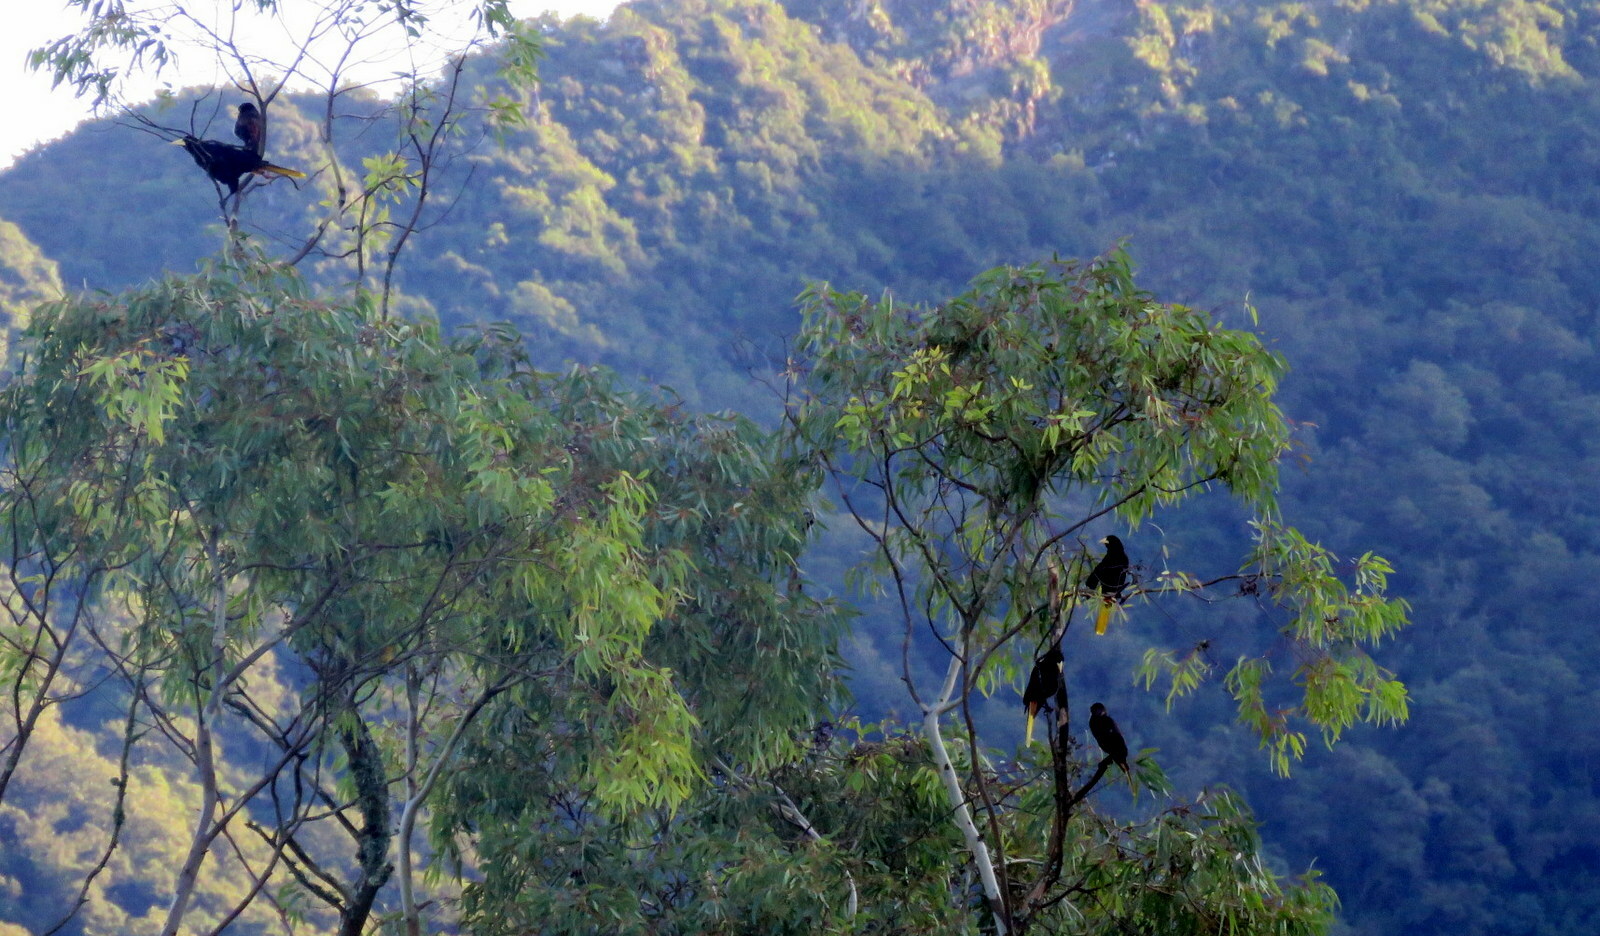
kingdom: Animalia
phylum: Chordata
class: Aves
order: Passeriformes
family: Icteridae
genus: Psarocolius
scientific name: Psarocolius decumanus
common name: Crested oropendola
